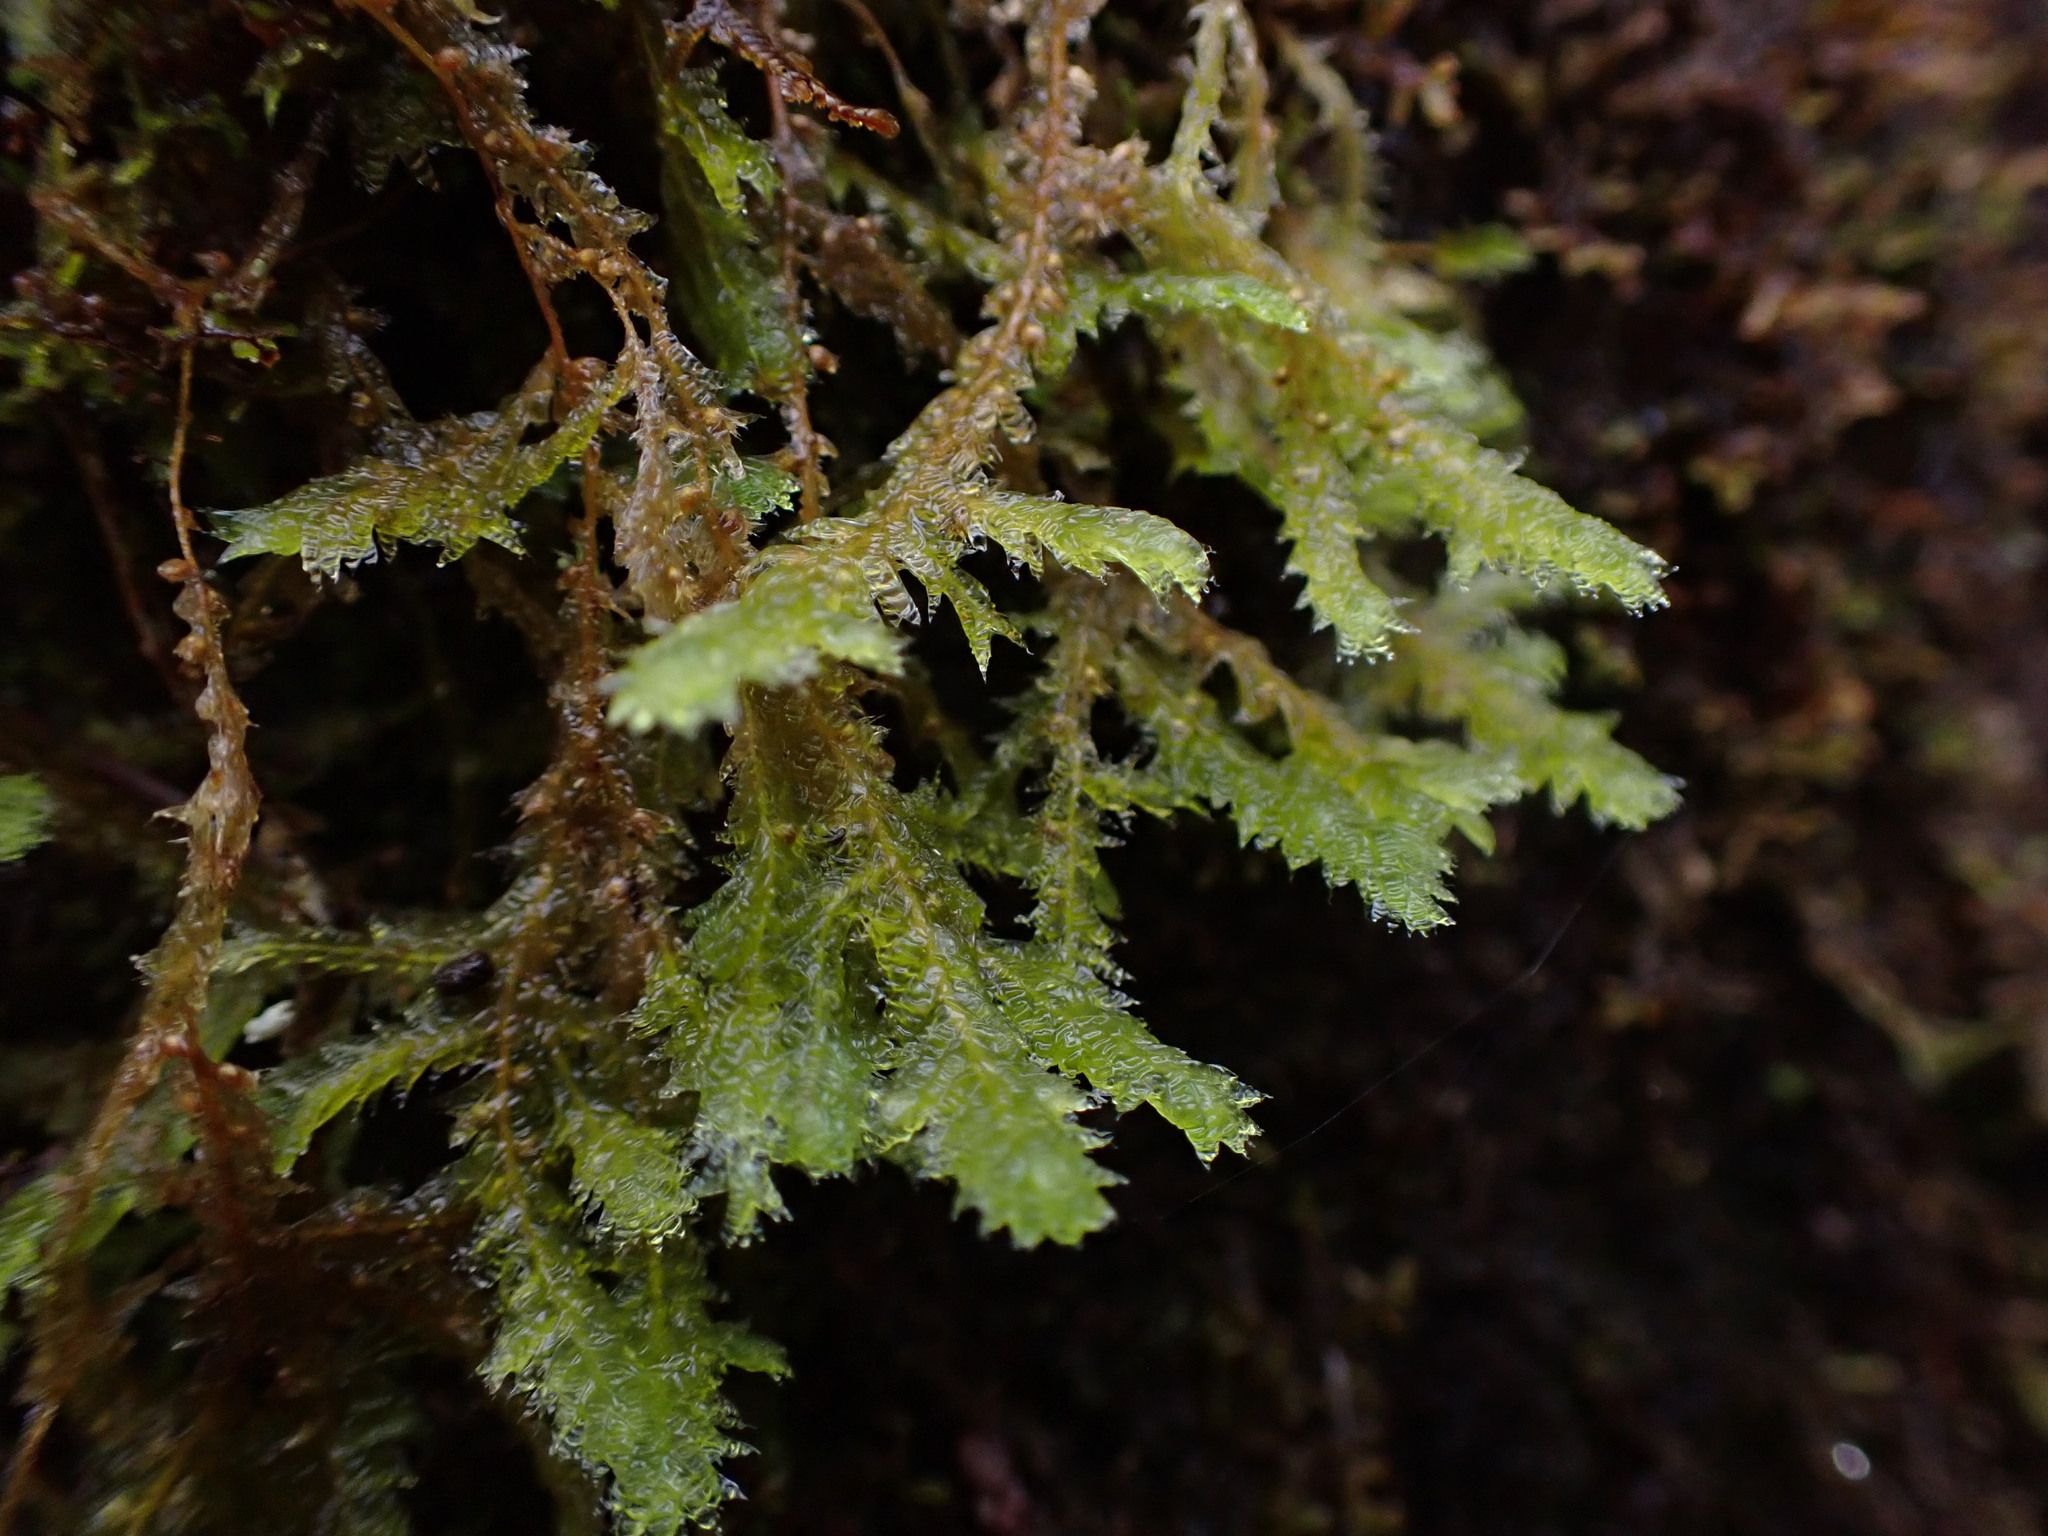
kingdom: Plantae
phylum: Bryophyta
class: Bryopsida
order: Hypnales
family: Neckeraceae
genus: Neckera
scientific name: Neckera douglasii
